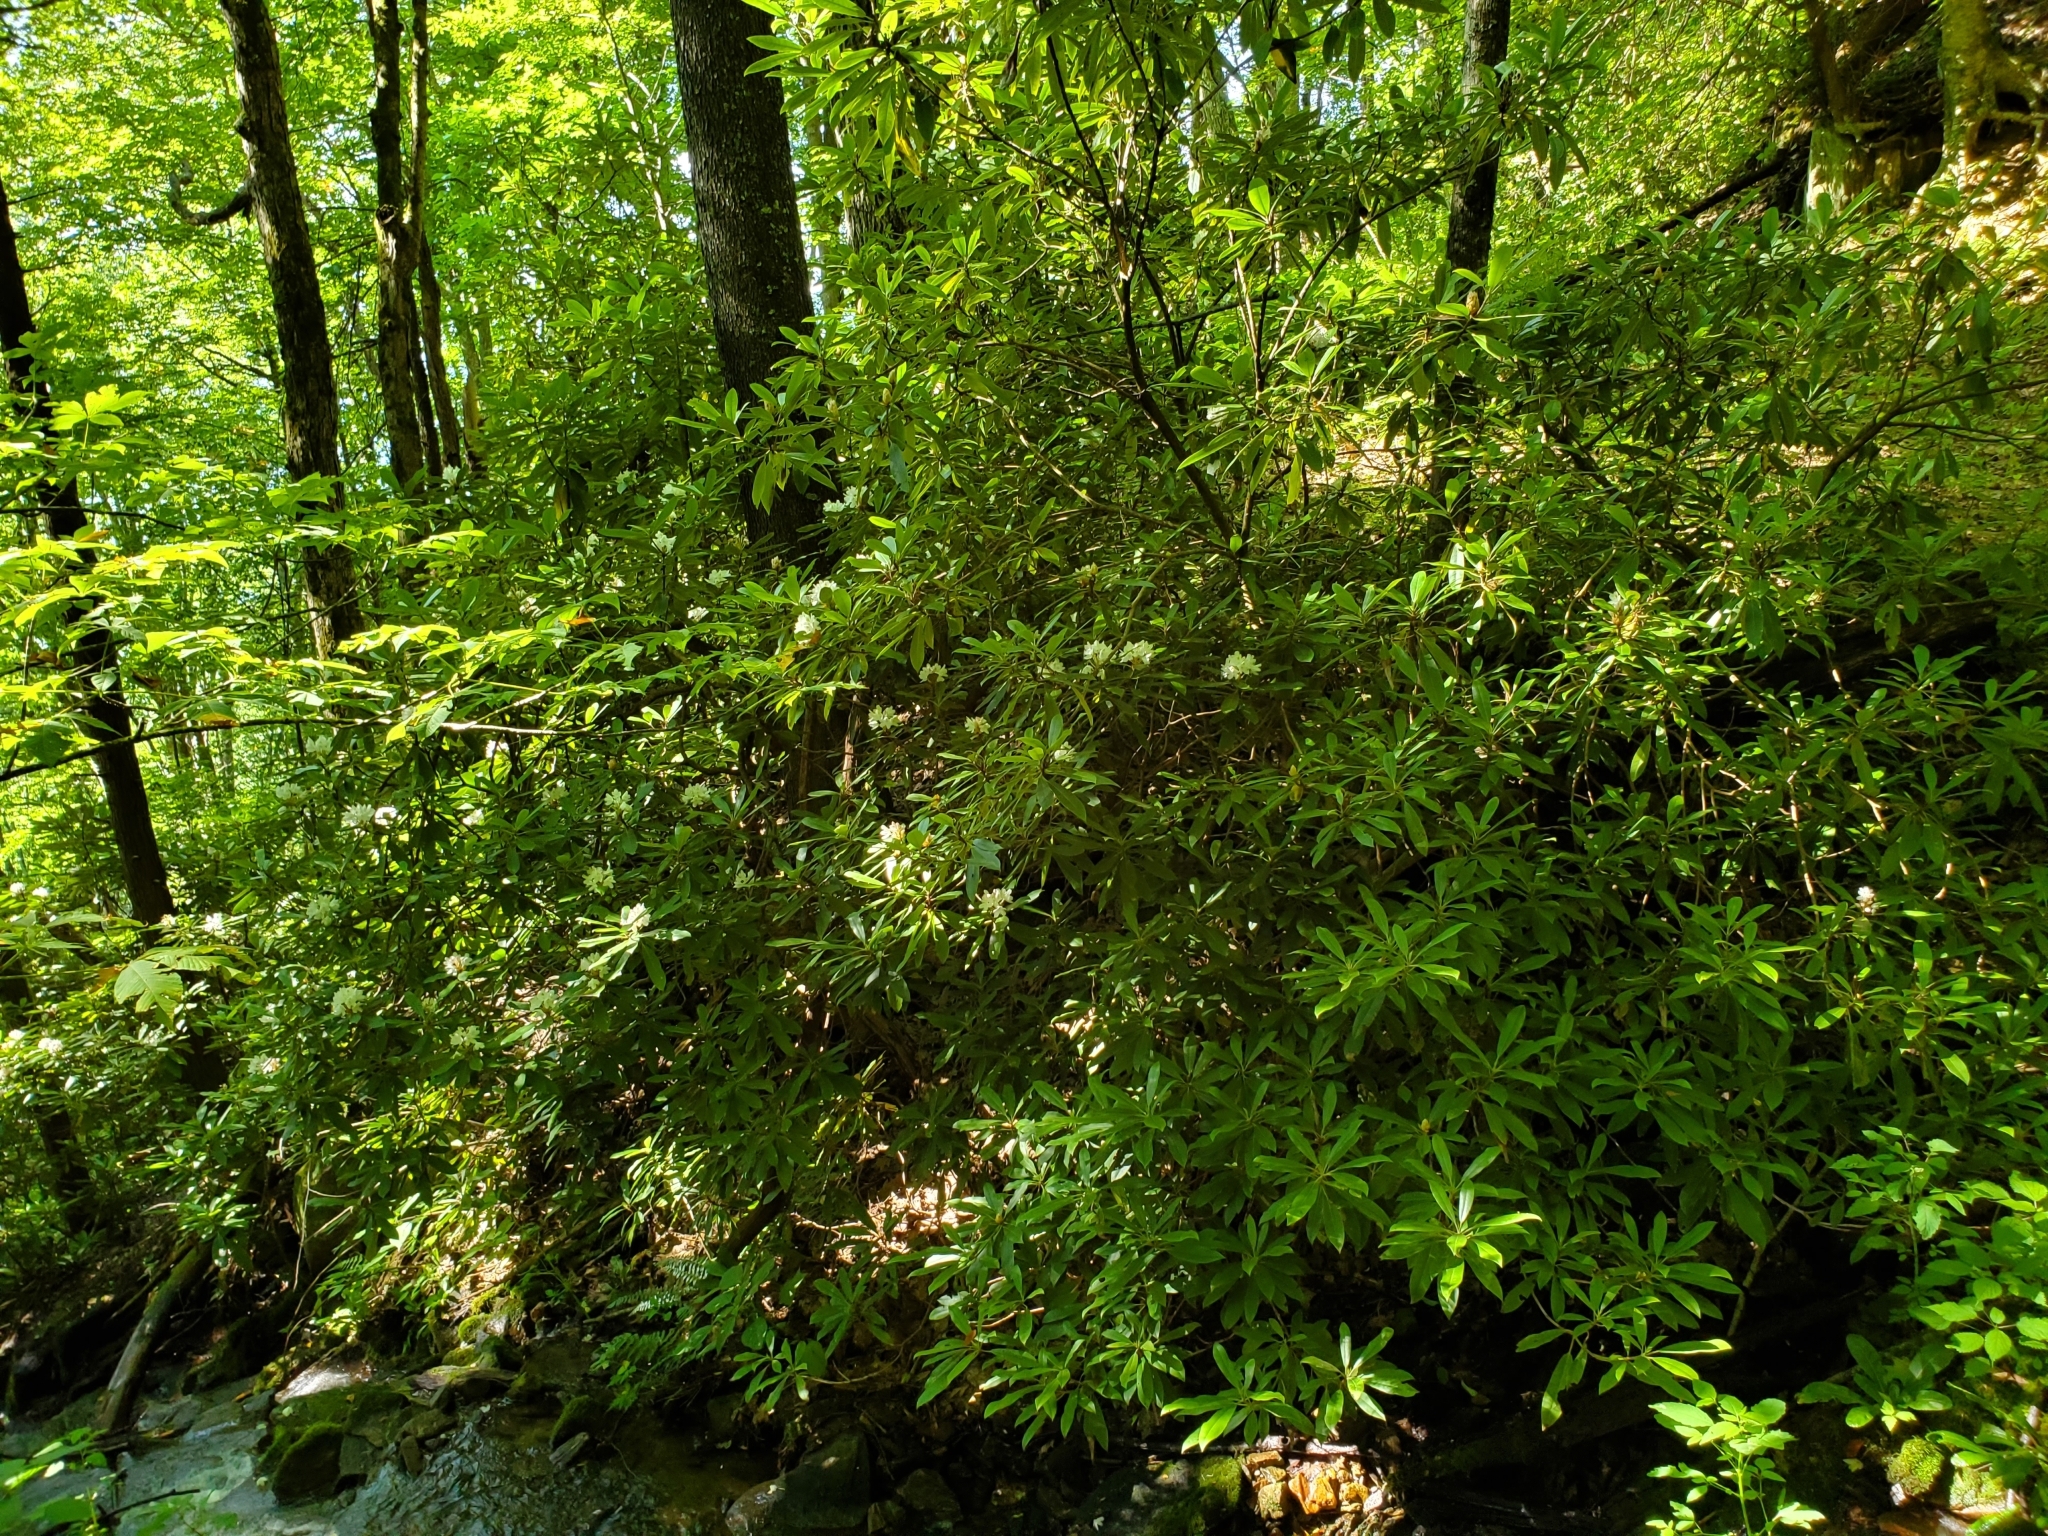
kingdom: Plantae
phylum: Tracheophyta
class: Magnoliopsida
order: Ericales
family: Ericaceae
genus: Rhododendron
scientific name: Rhododendron maximum
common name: Great rhododendron
